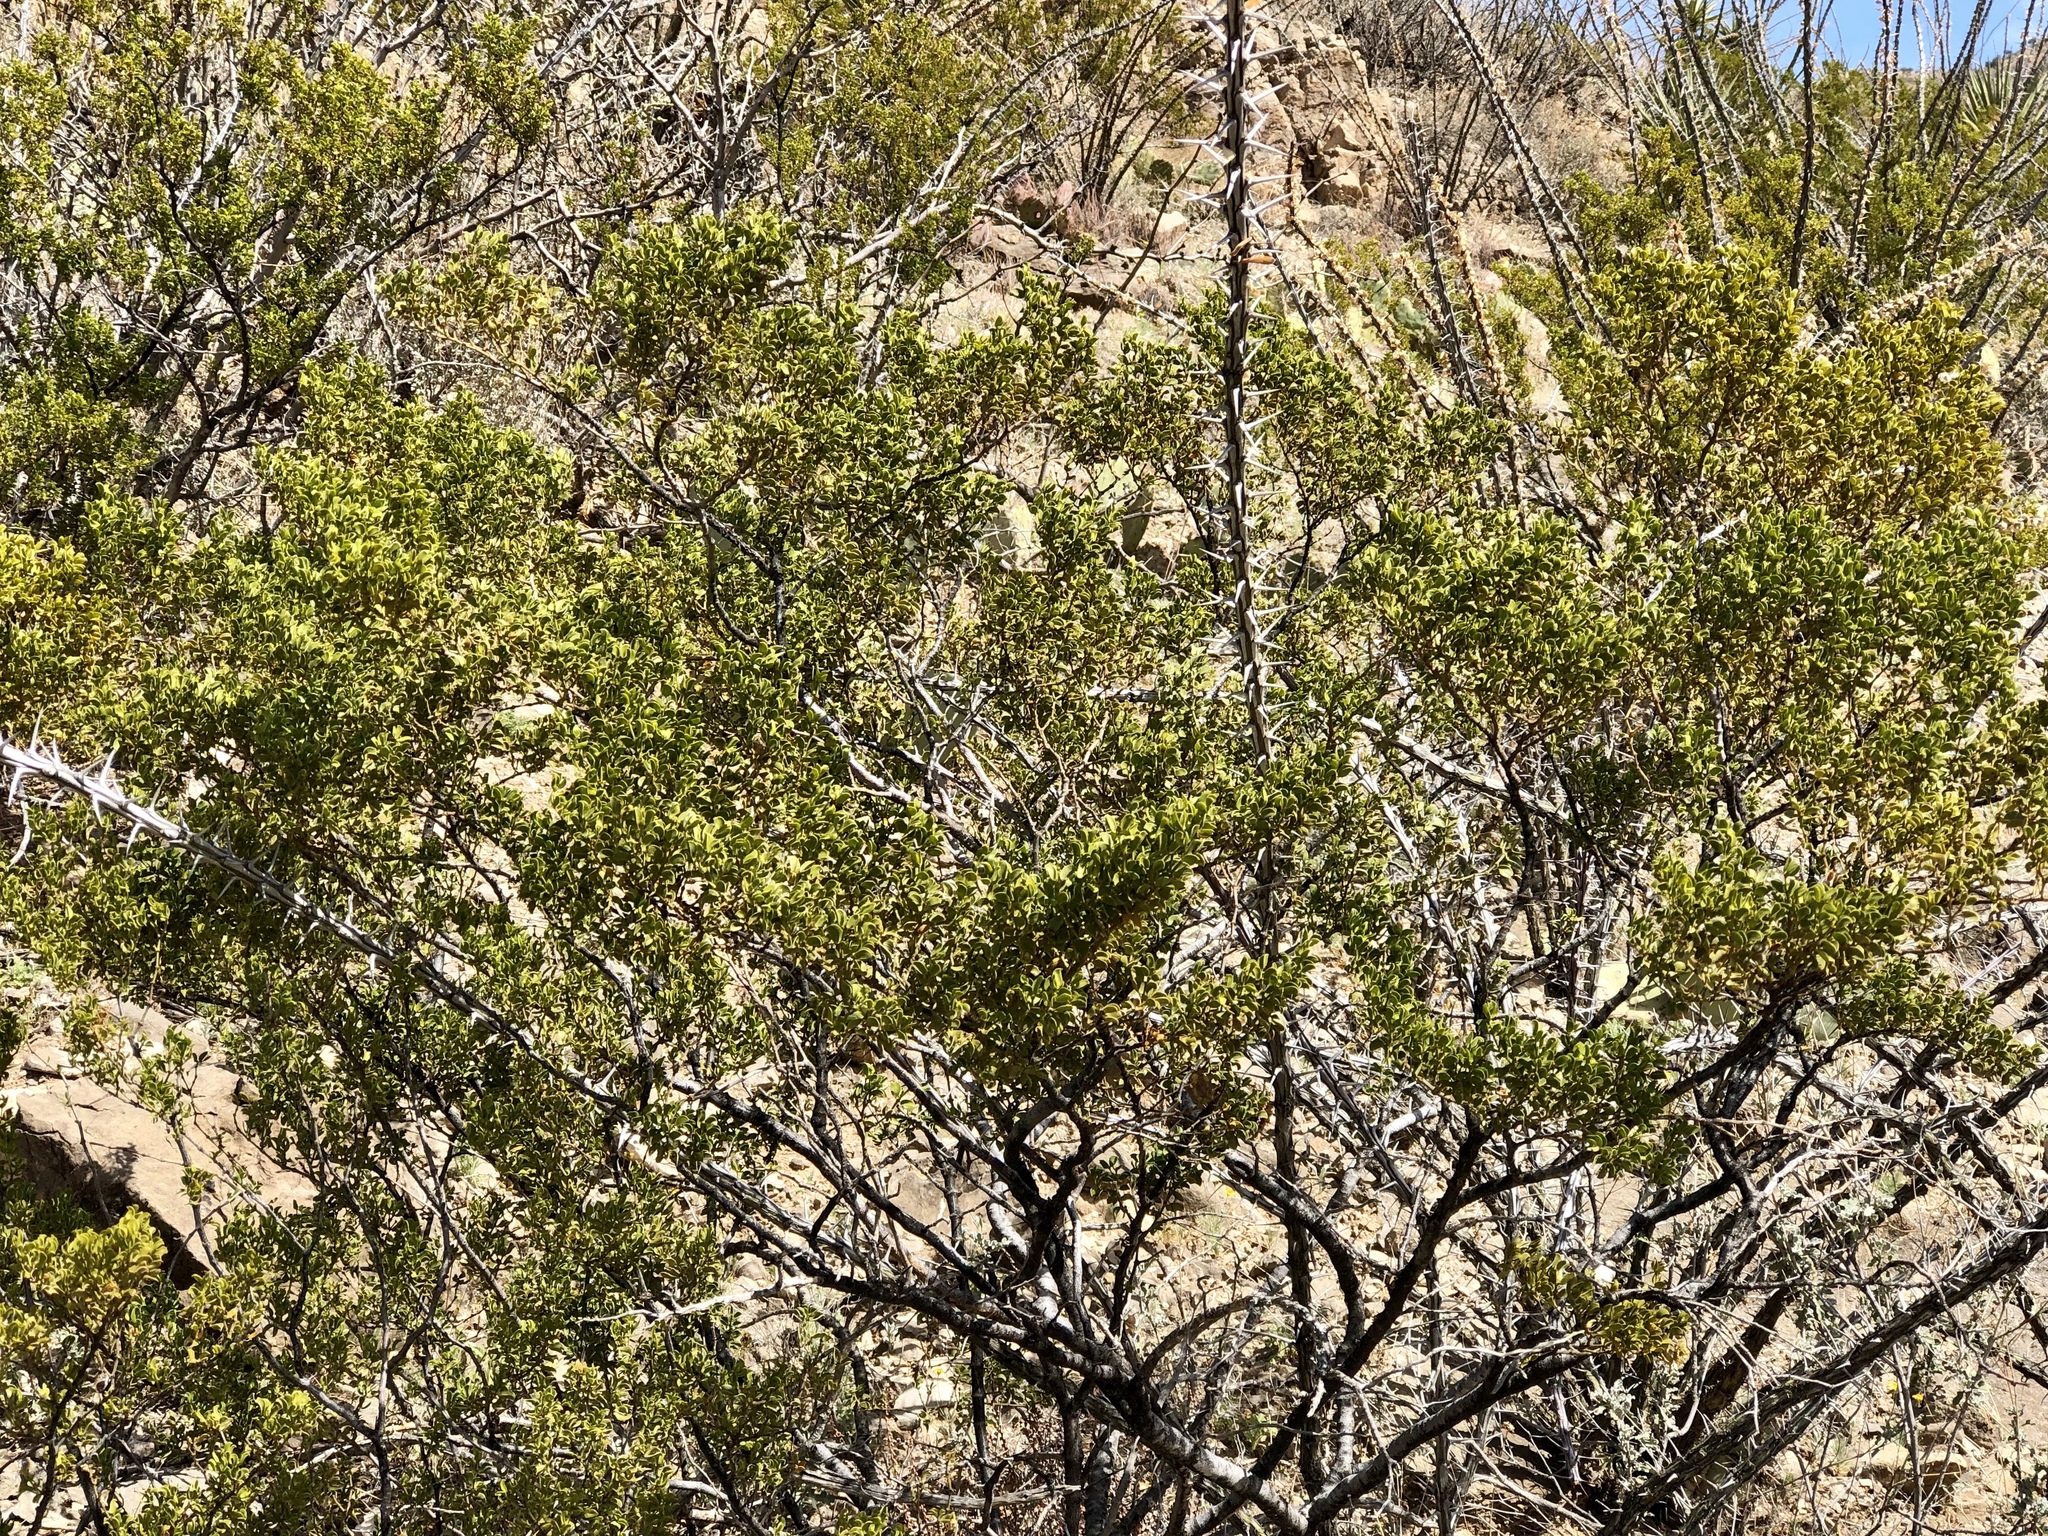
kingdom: Plantae
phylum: Tracheophyta
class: Magnoliopsida
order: Zygophyllales
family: Zygophyllaceae
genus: Larrea
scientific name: Larrea tridentata
